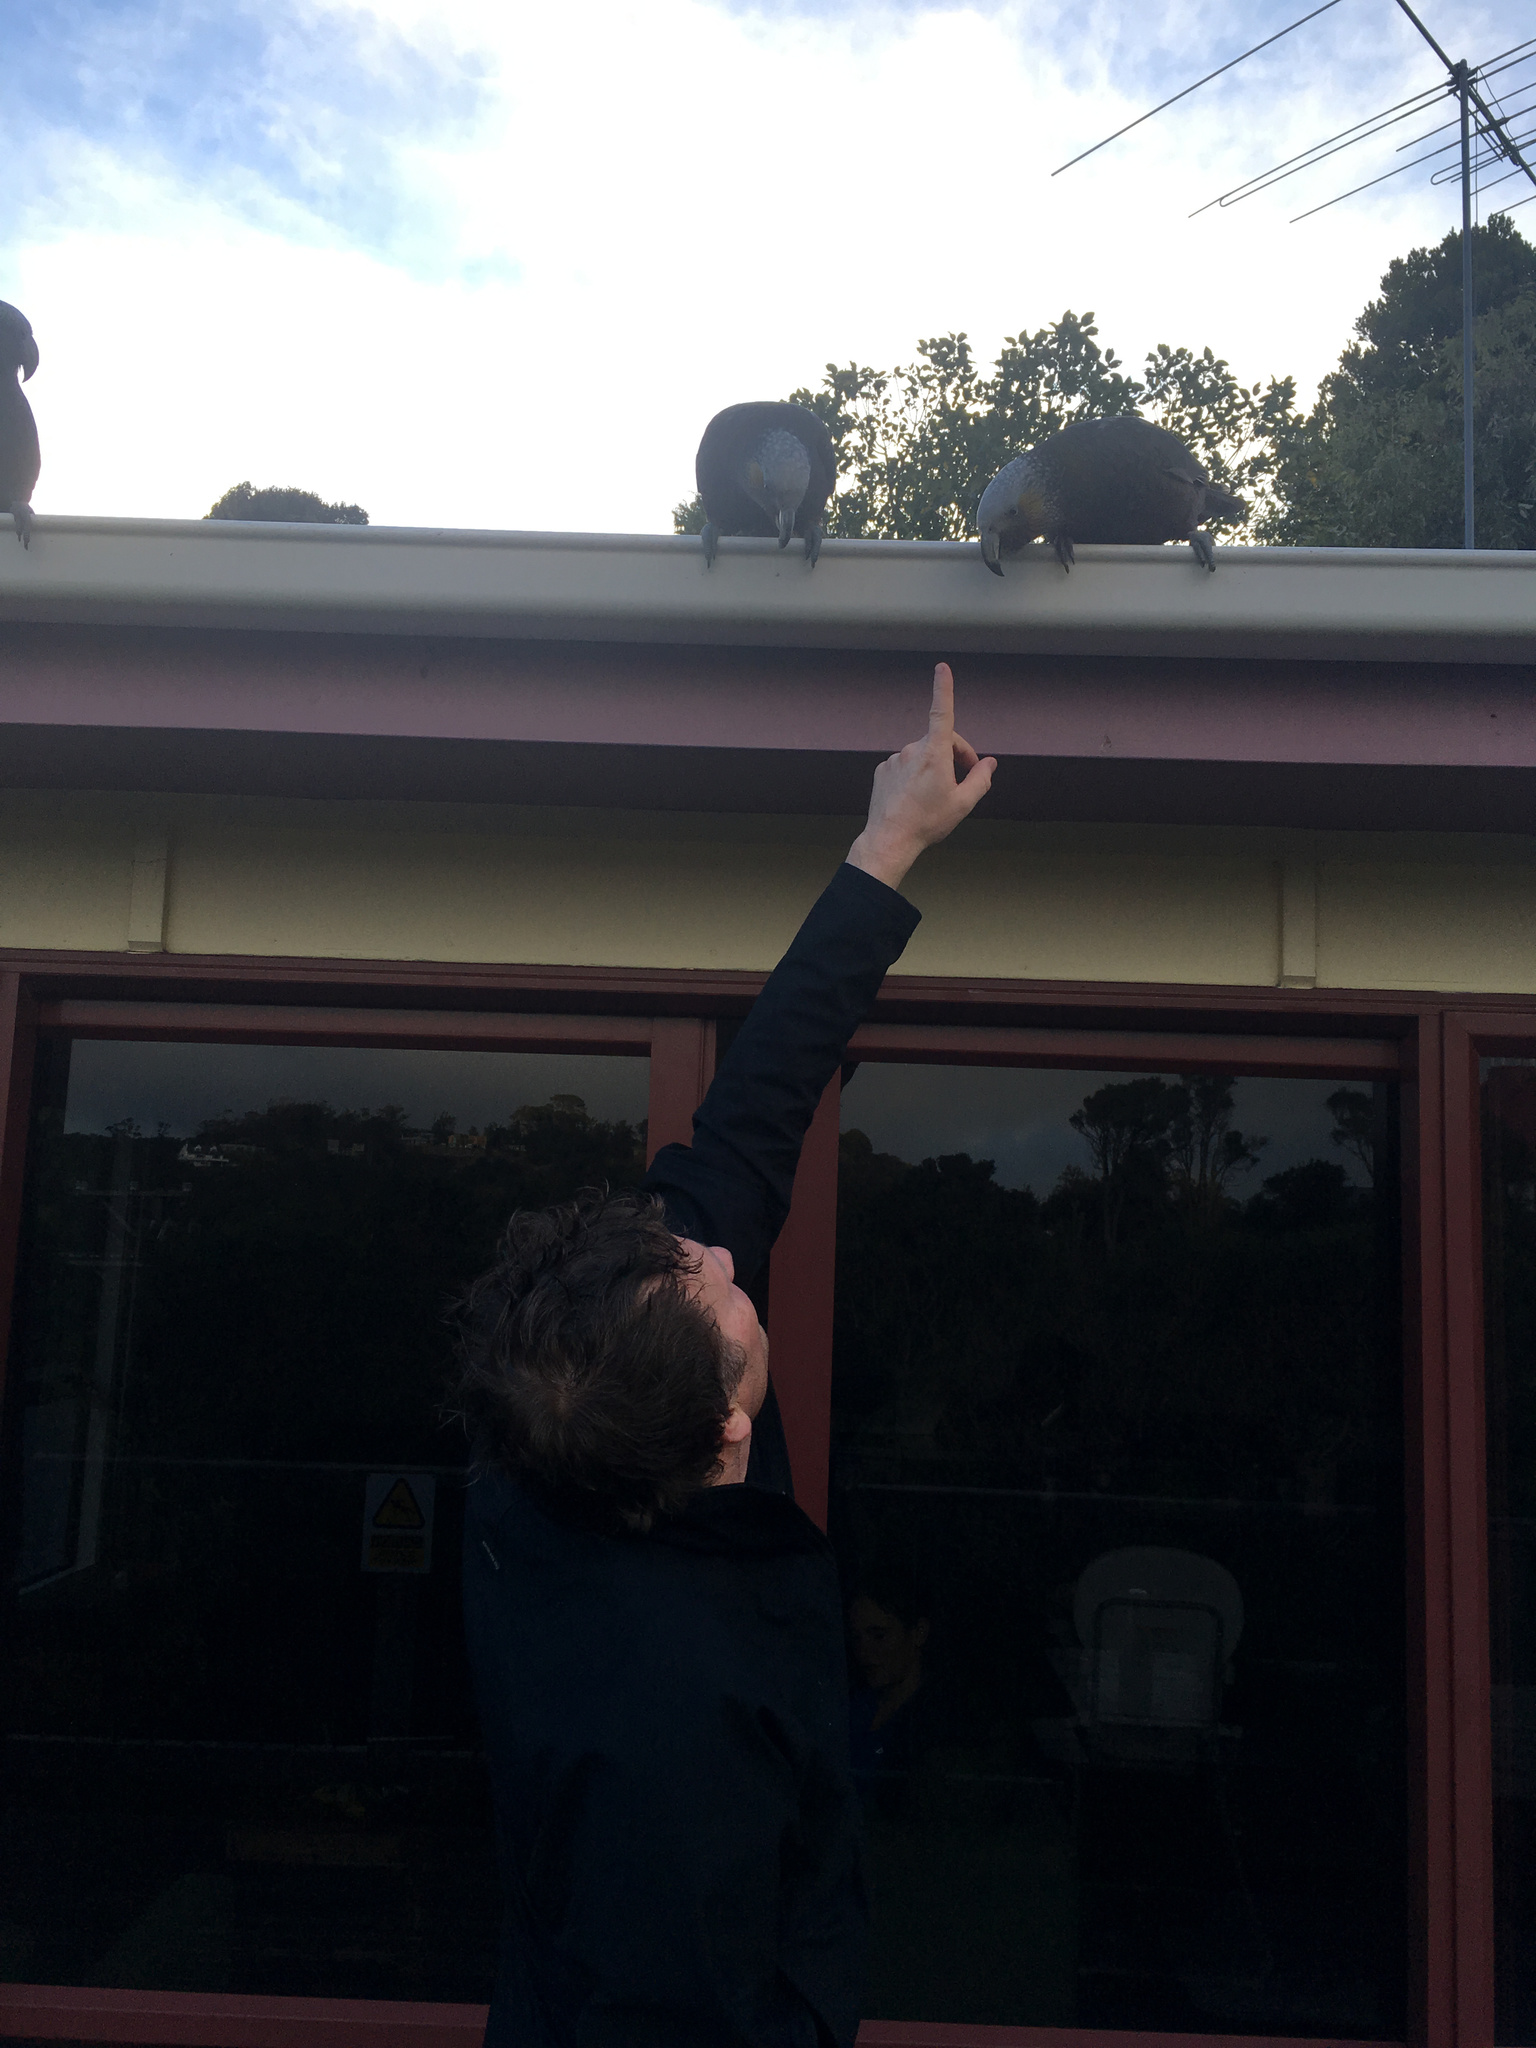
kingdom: Animalia
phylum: Chordata
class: Aves
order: Psittaciformes
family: Psittacidae
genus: Nestor
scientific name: Nestor meridionalis
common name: New zealand kaka
